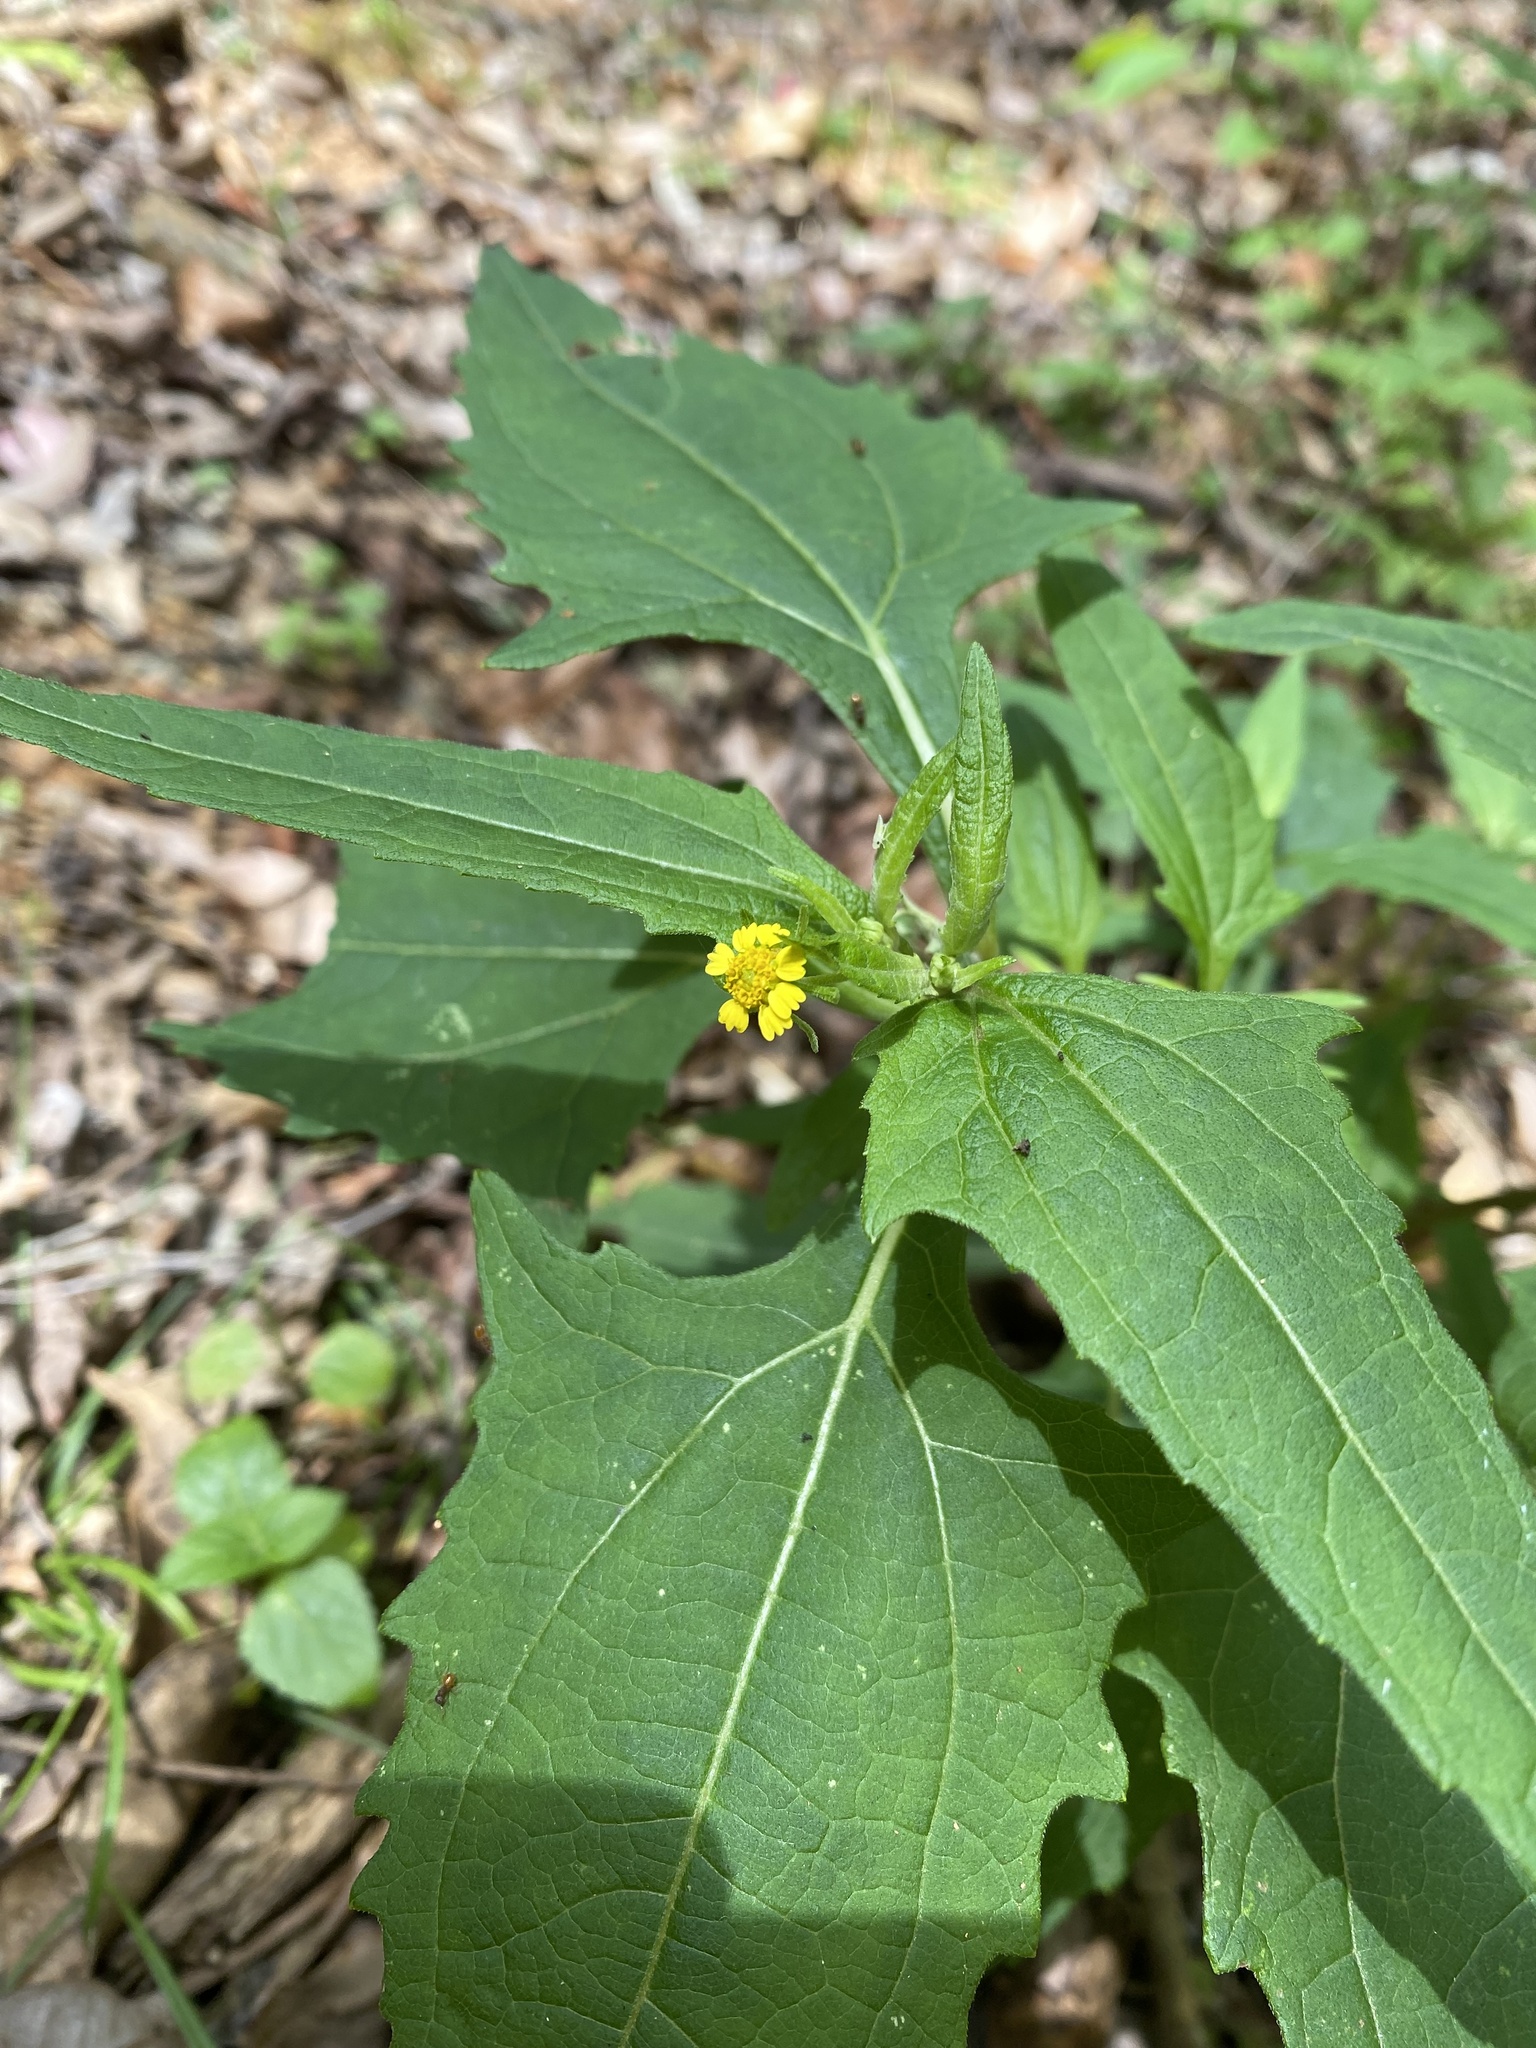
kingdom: Plantae
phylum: Tracheophyta
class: Magnoliopsida
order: Asterales
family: Asteraceae
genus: Sigesbeckia
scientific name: Sigesbeckia orientalis
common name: Eastern st paul's-wort
